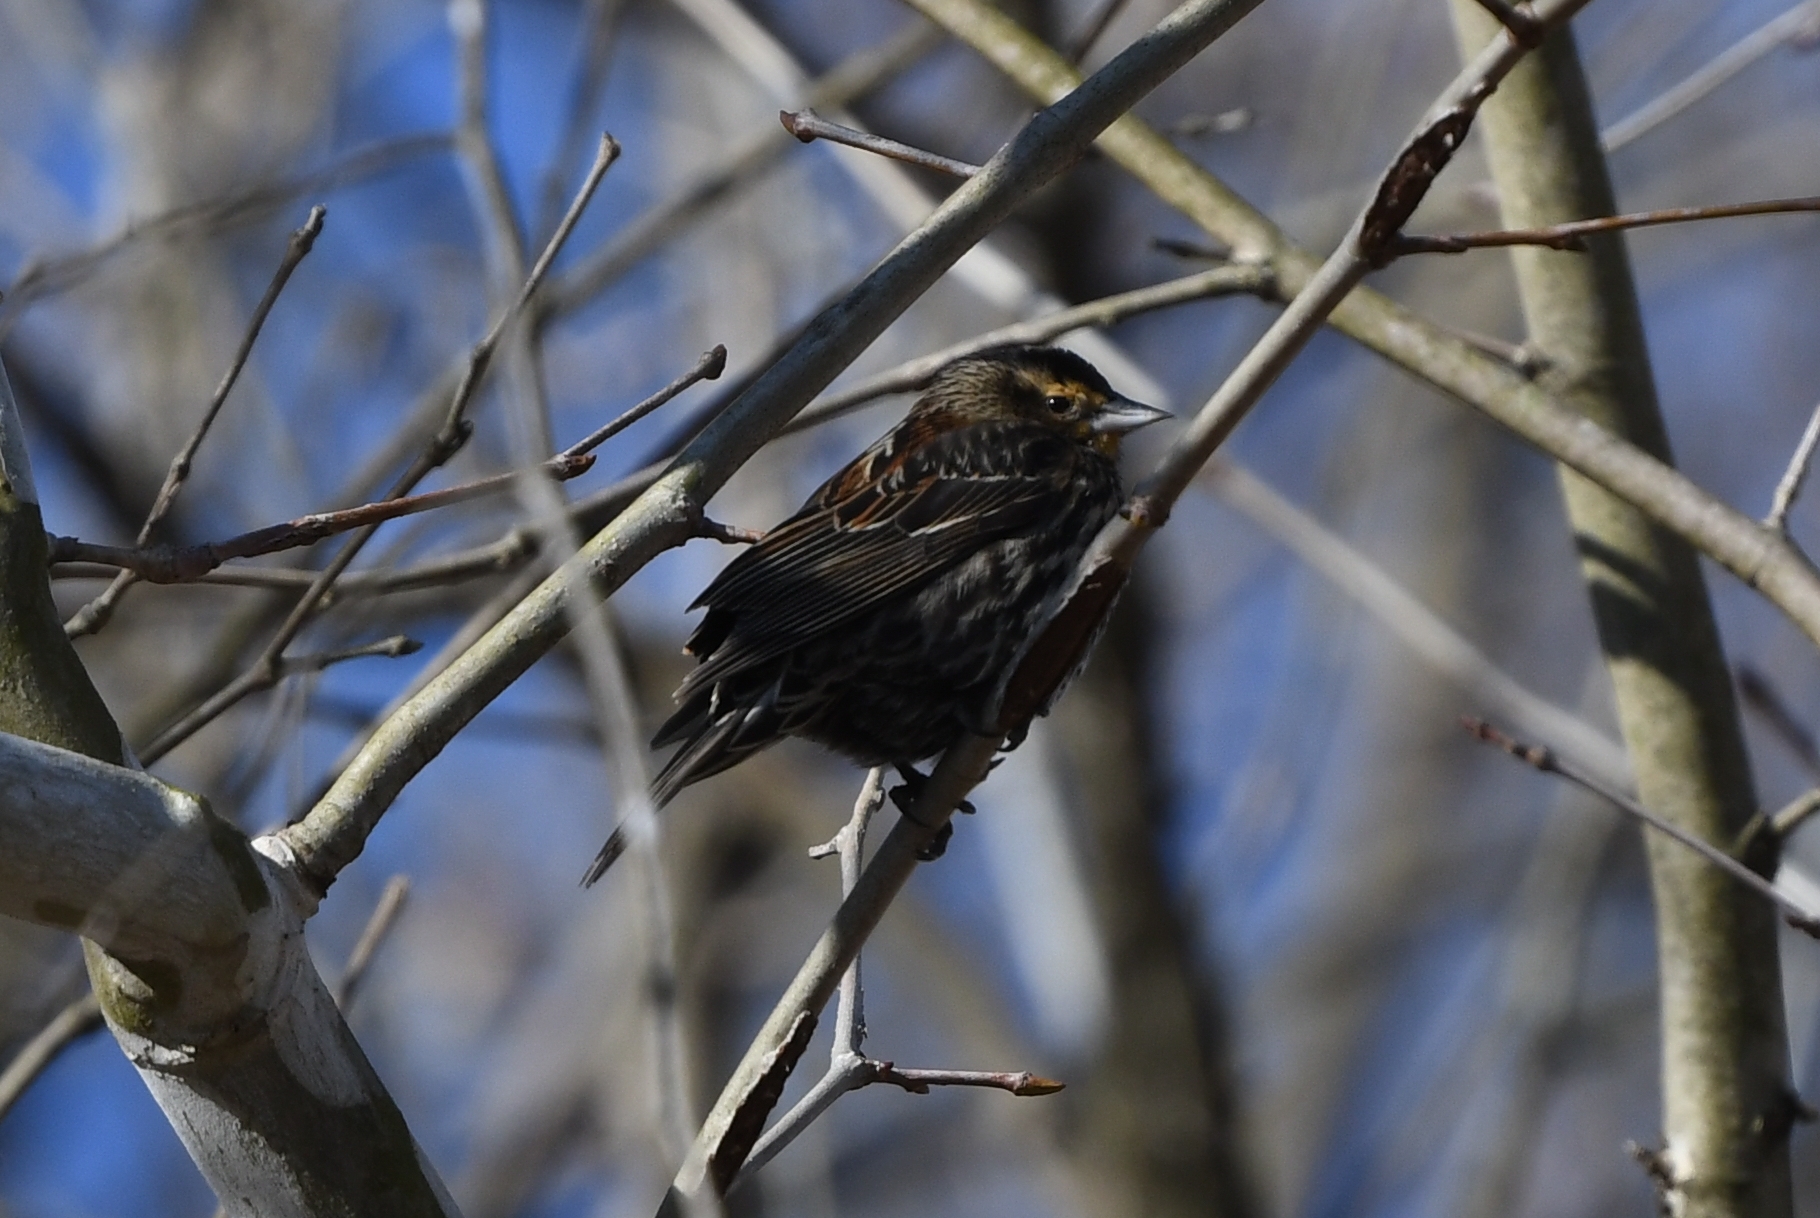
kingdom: Animalia
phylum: Chordata
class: Aves
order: Passeriformes
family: Icteridae
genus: Agelaius
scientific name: Agelaius phoeniceus
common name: Red-winged blackbird
